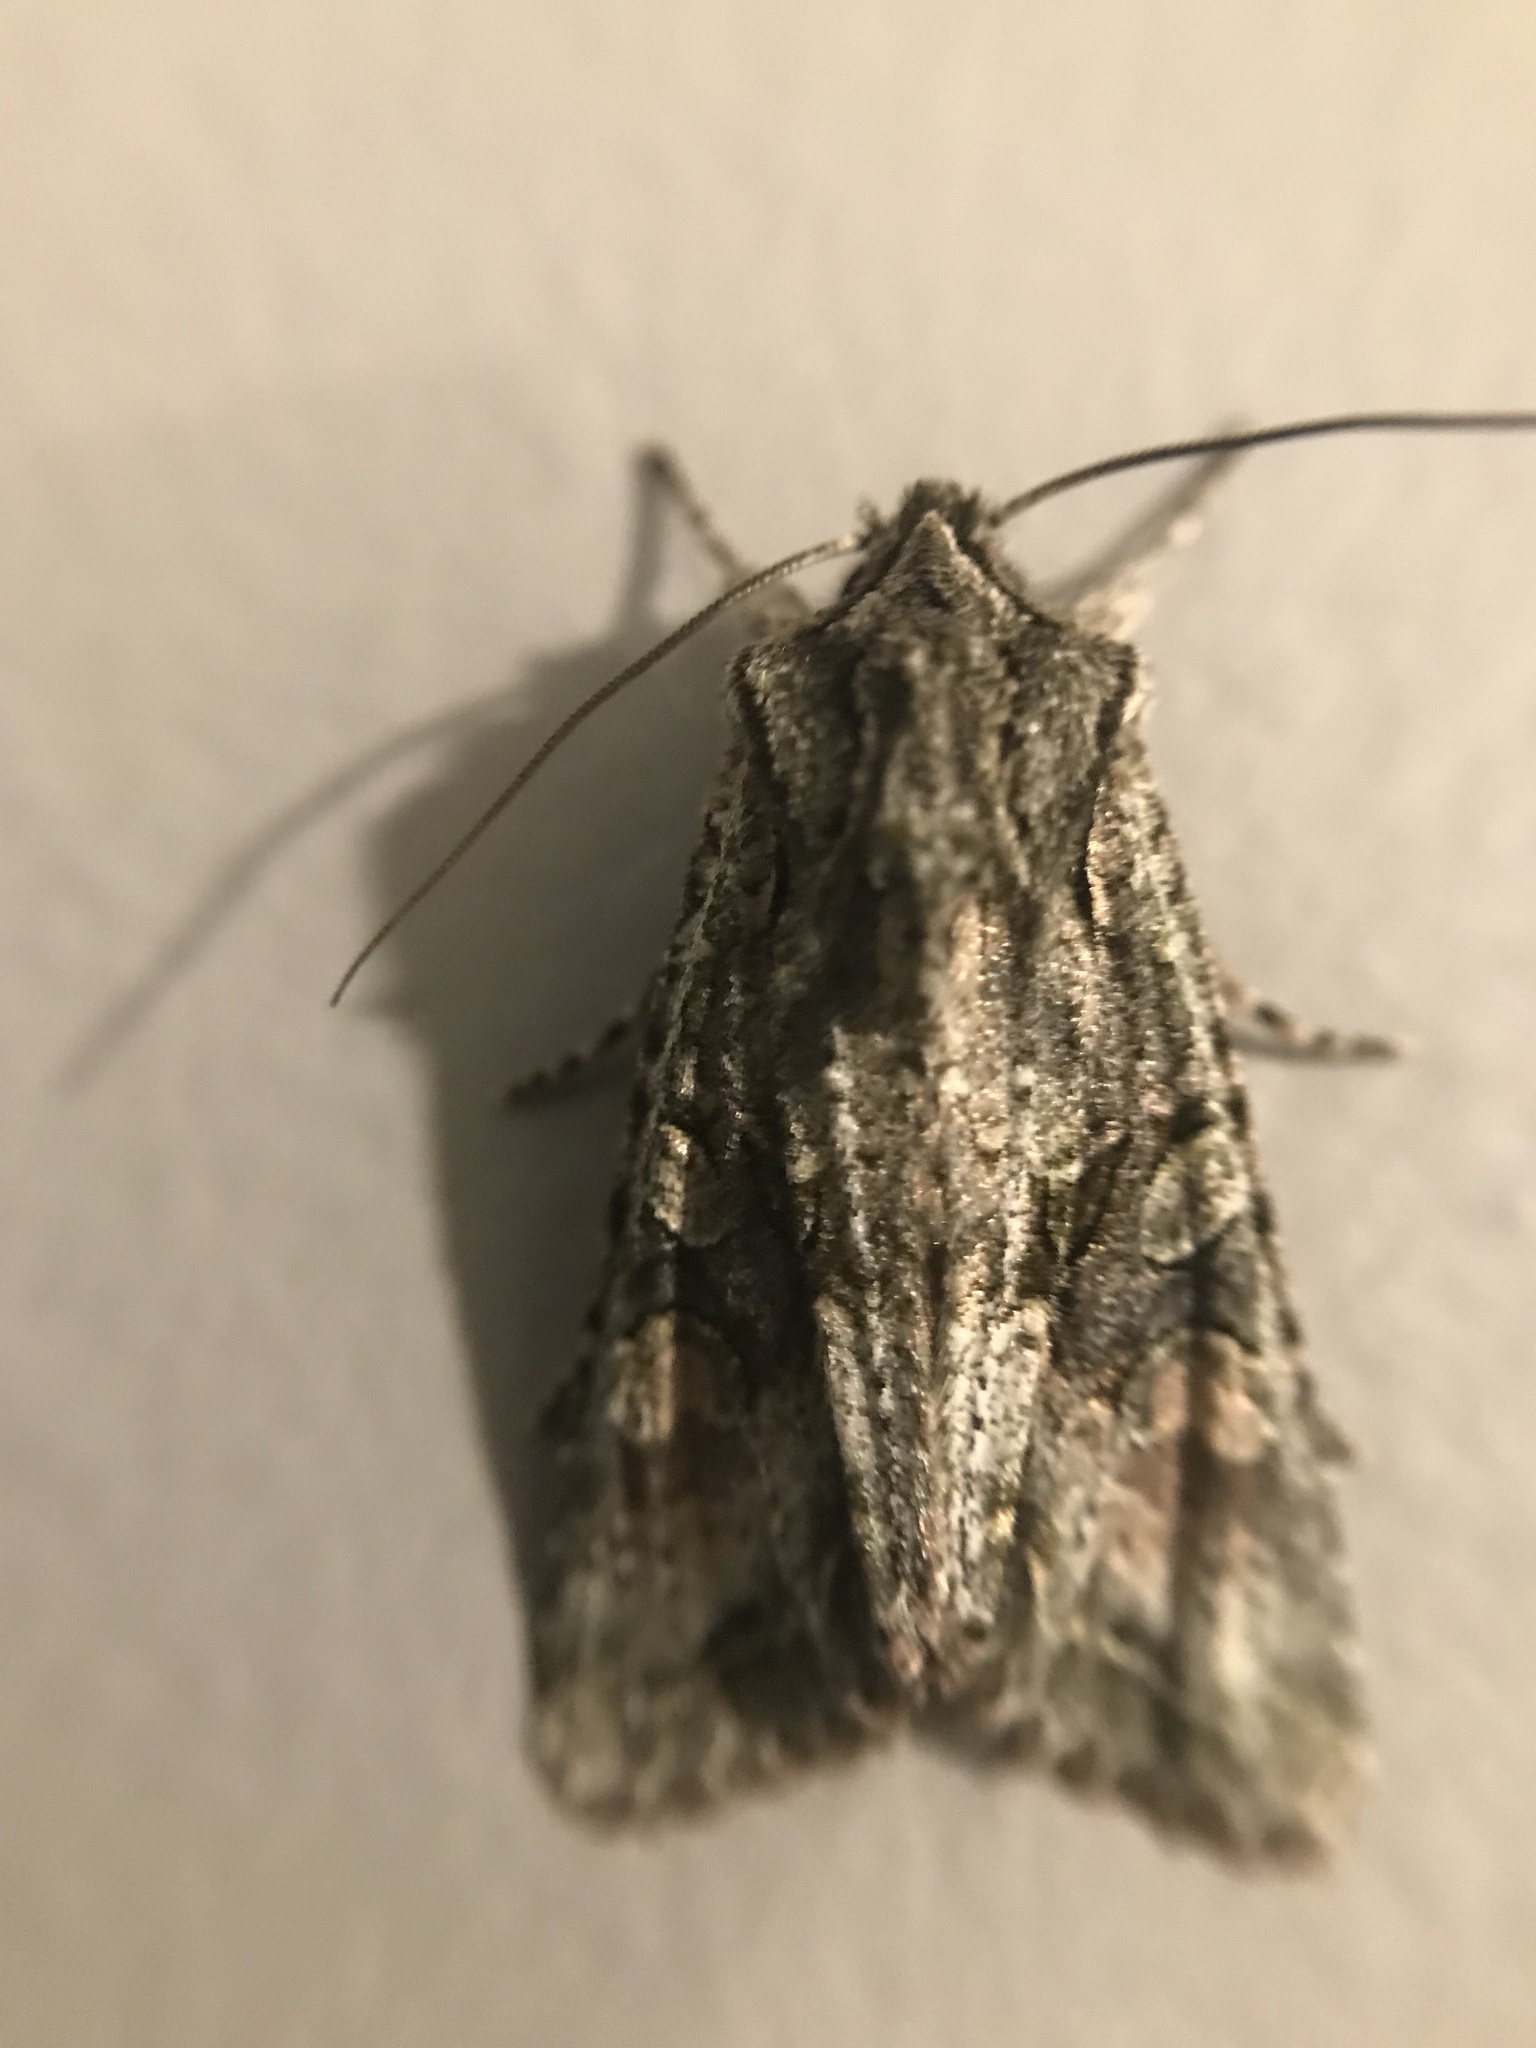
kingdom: Animalia
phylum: Arthropoda
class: Insecta
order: Lepidoptera
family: Noctuidae
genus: Ichneutica
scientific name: Ichneutica mutans
